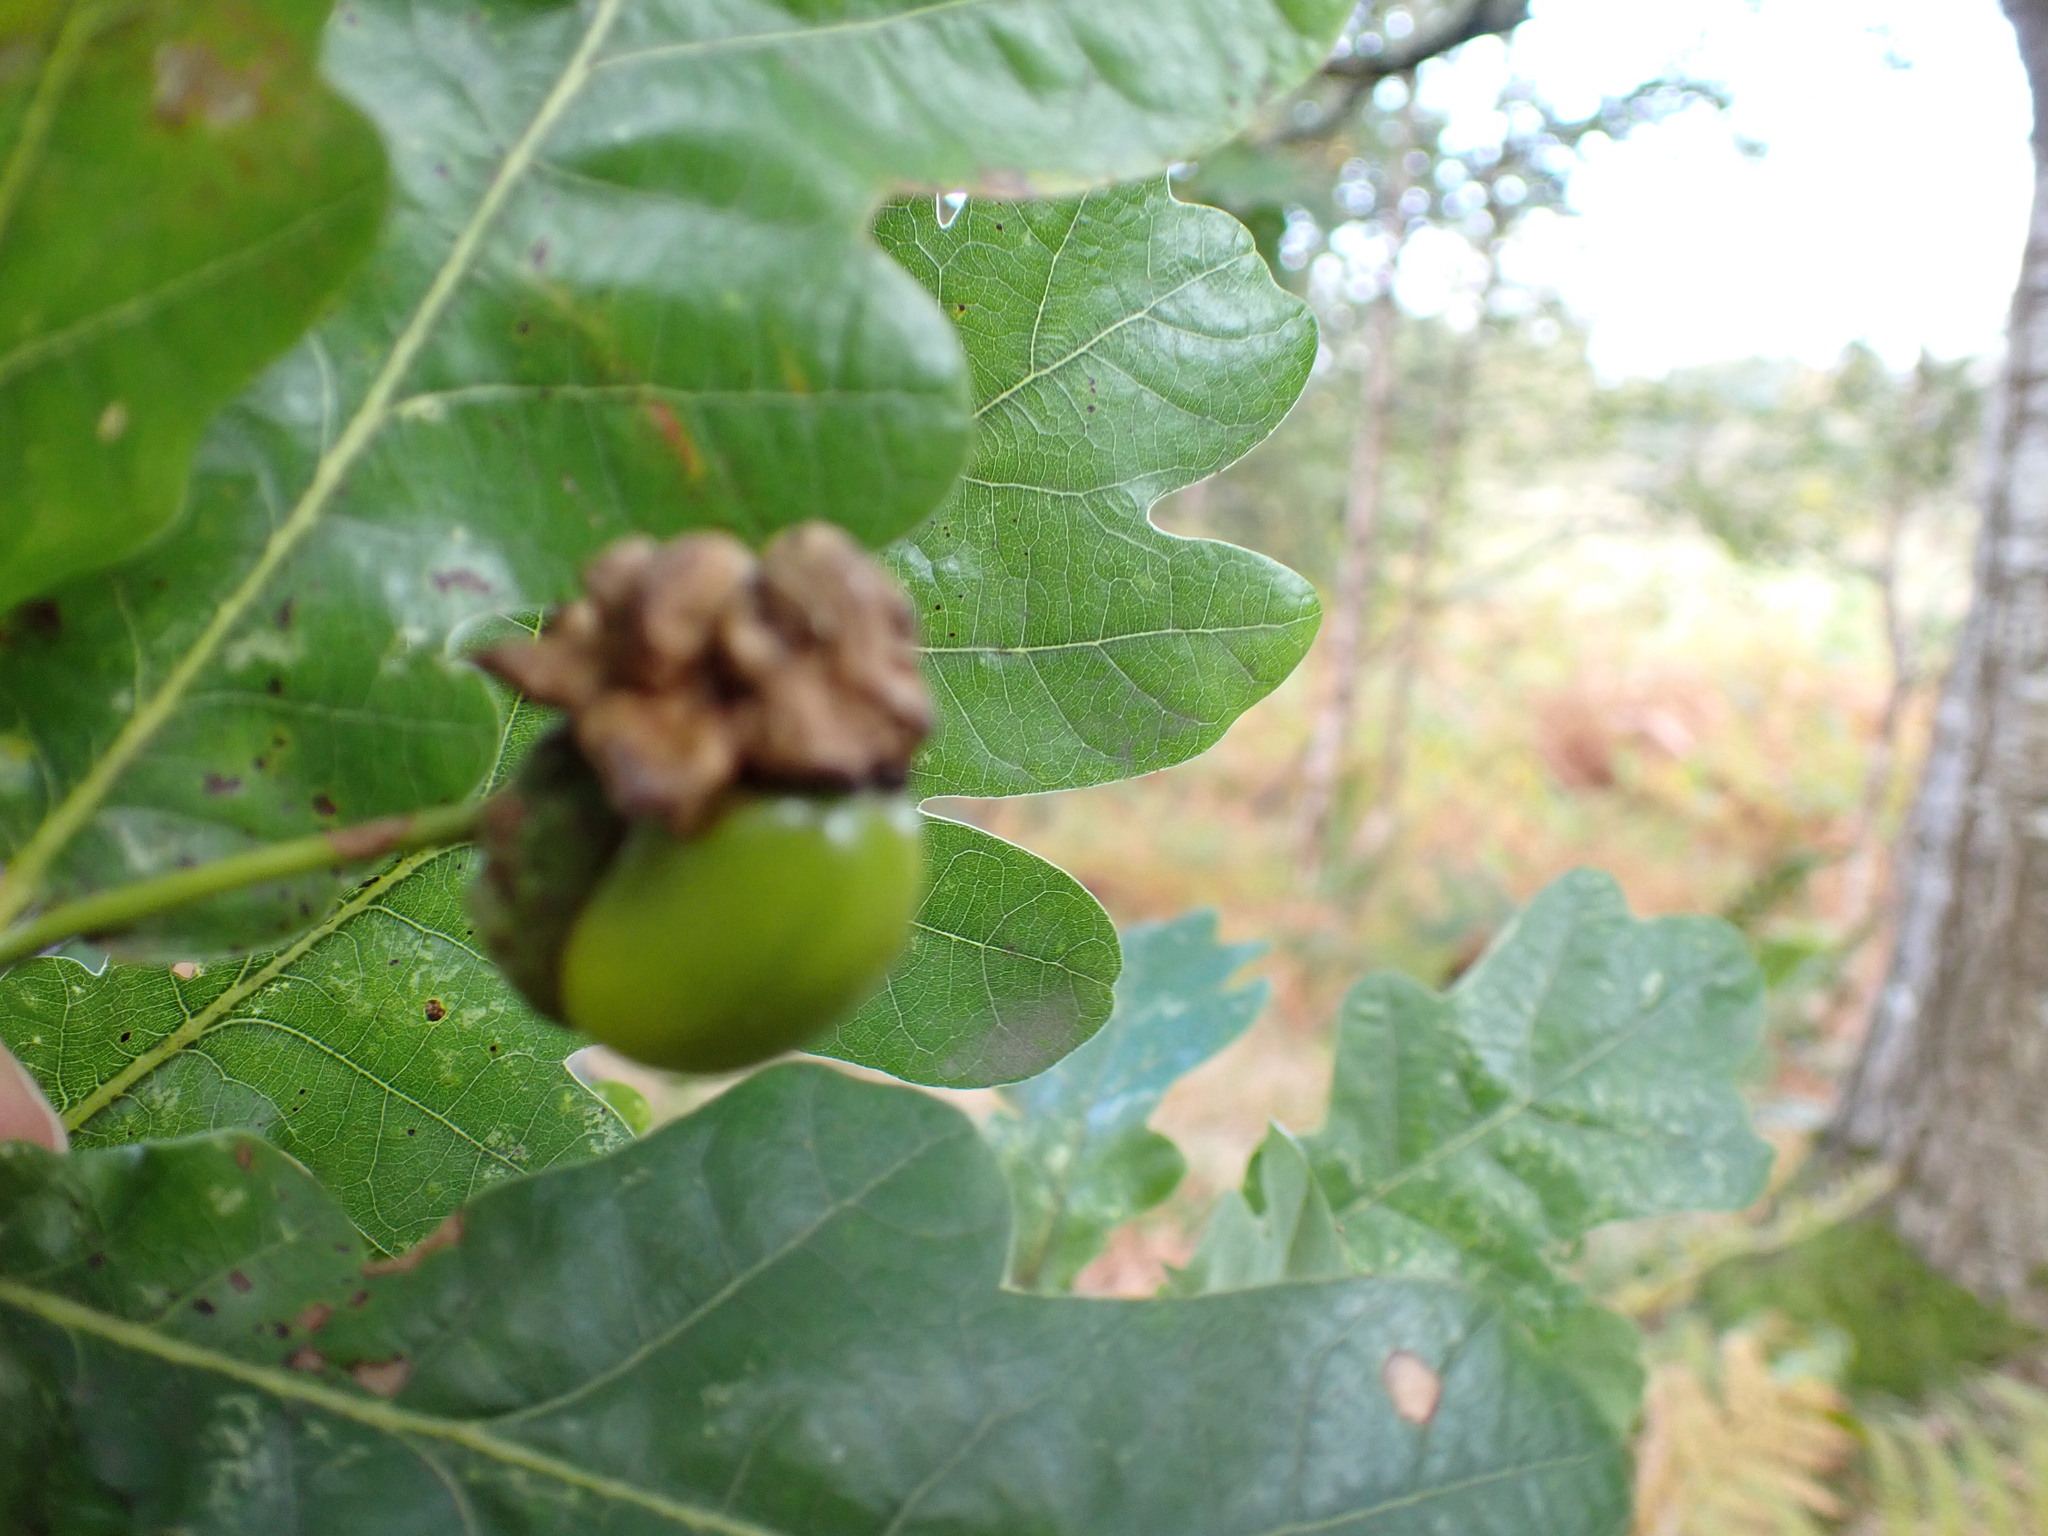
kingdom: Animalia
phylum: Arthropoda
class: Insecta
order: Hymenoptera
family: Cynipidae
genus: Andricus
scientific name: Andricus quercuscalicis
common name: Knopper gall
